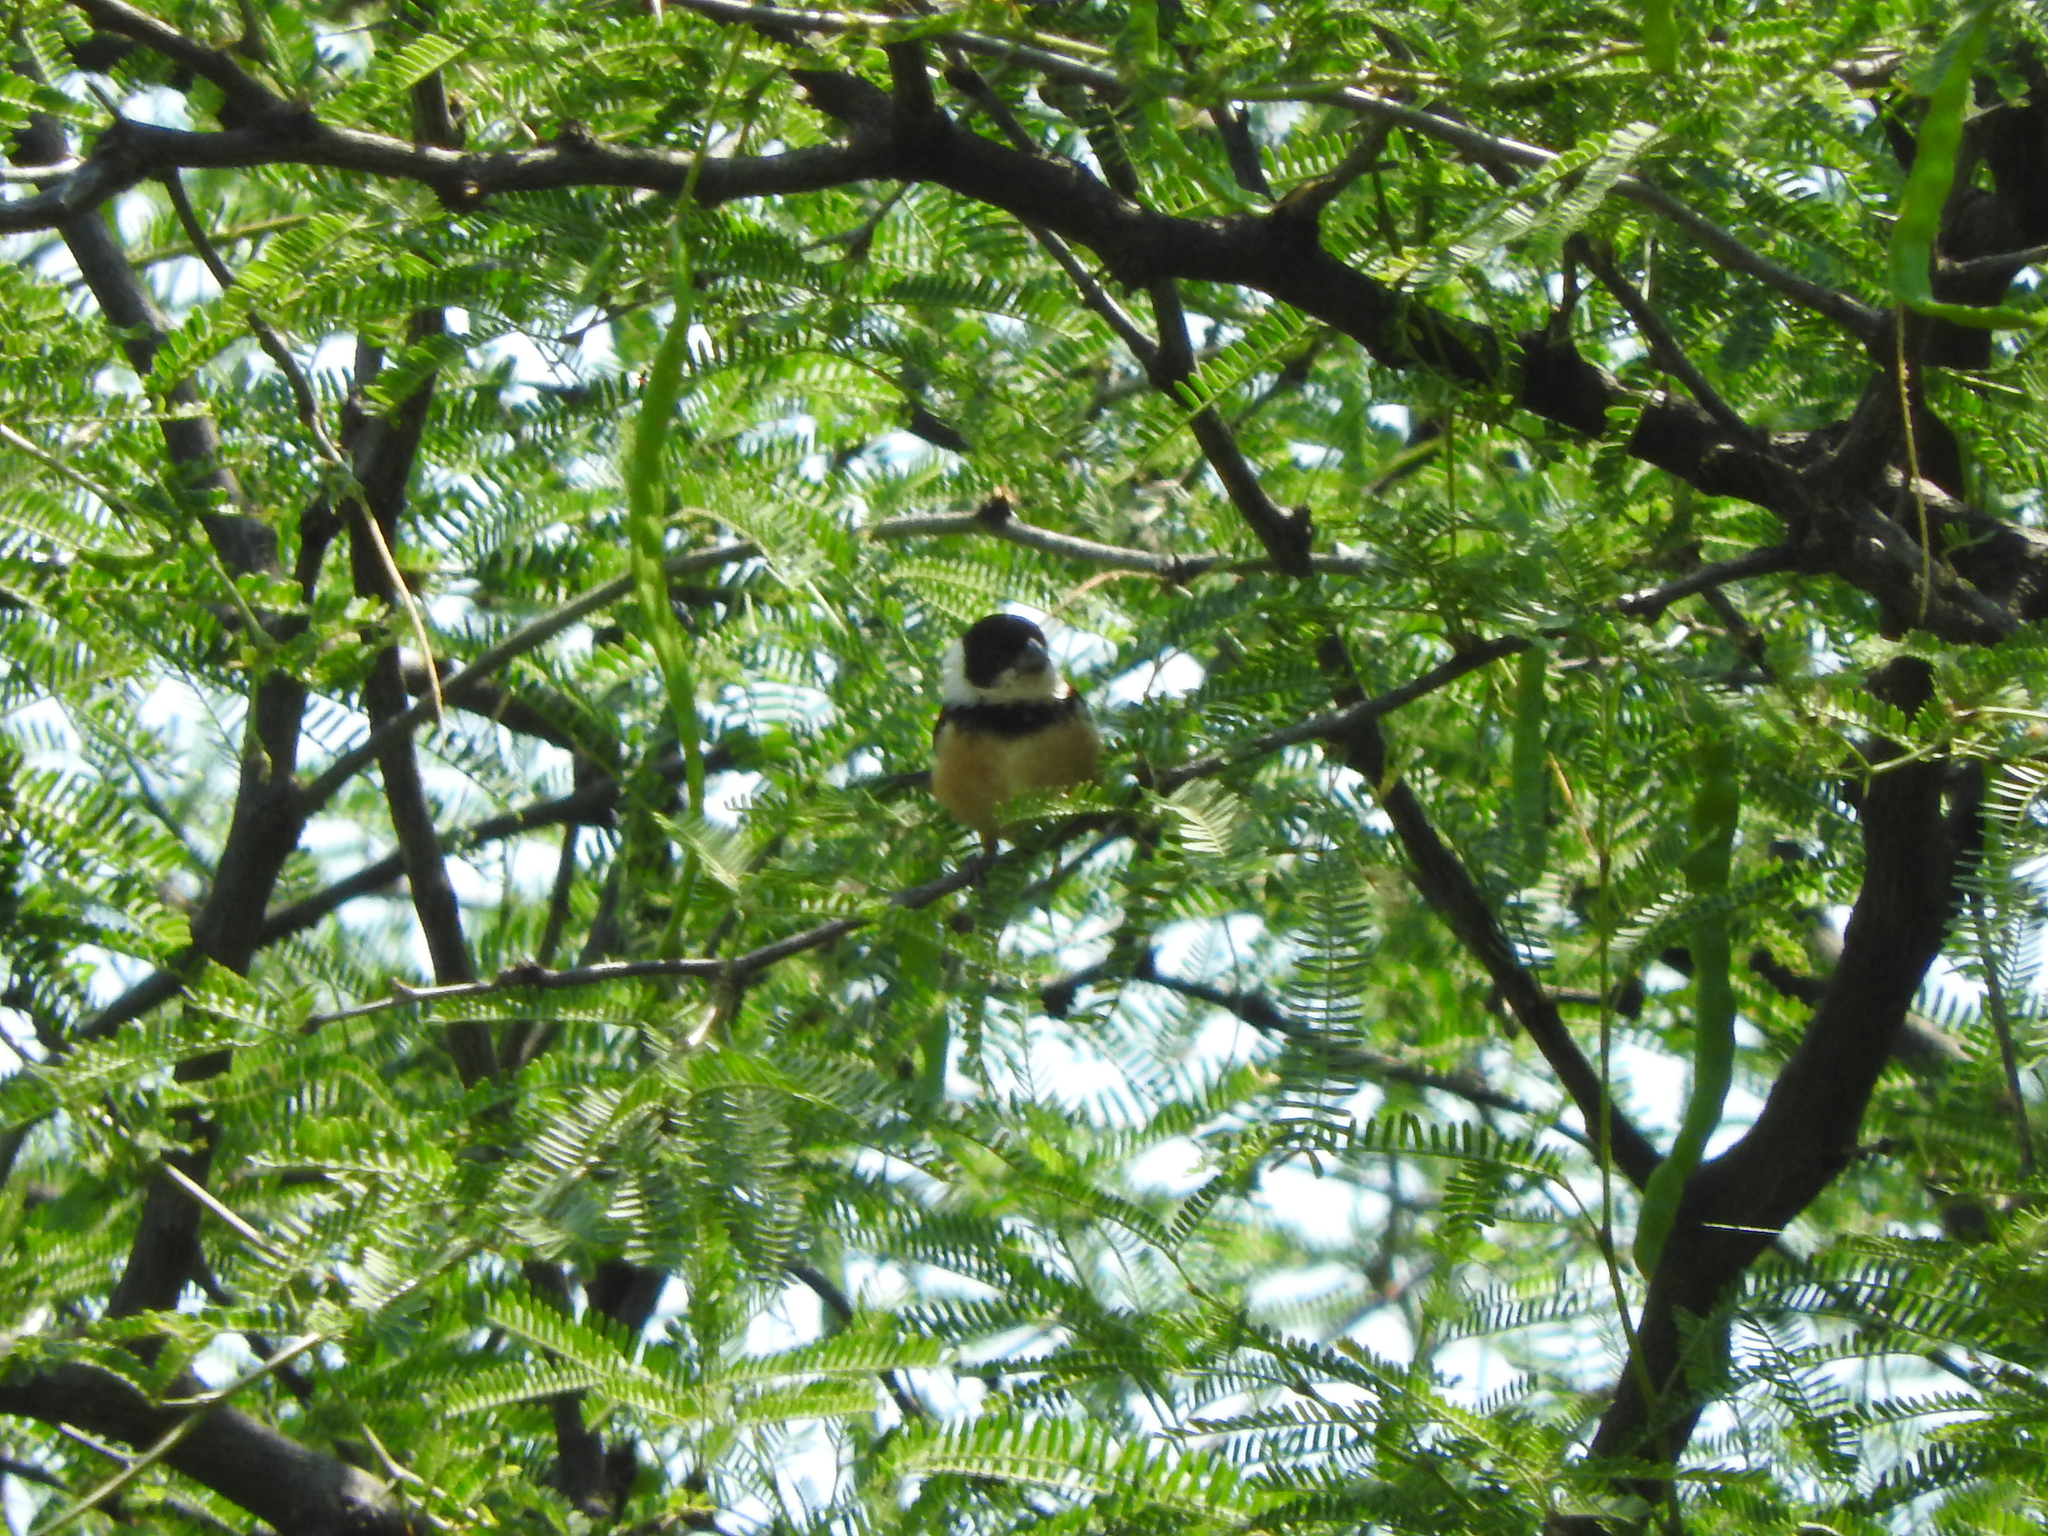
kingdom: Animalia
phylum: Chordata
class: Aves
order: Passeriformes
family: Thraupidae
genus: Sporophila
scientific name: Sporophila torqueola
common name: White-collared seedeater
